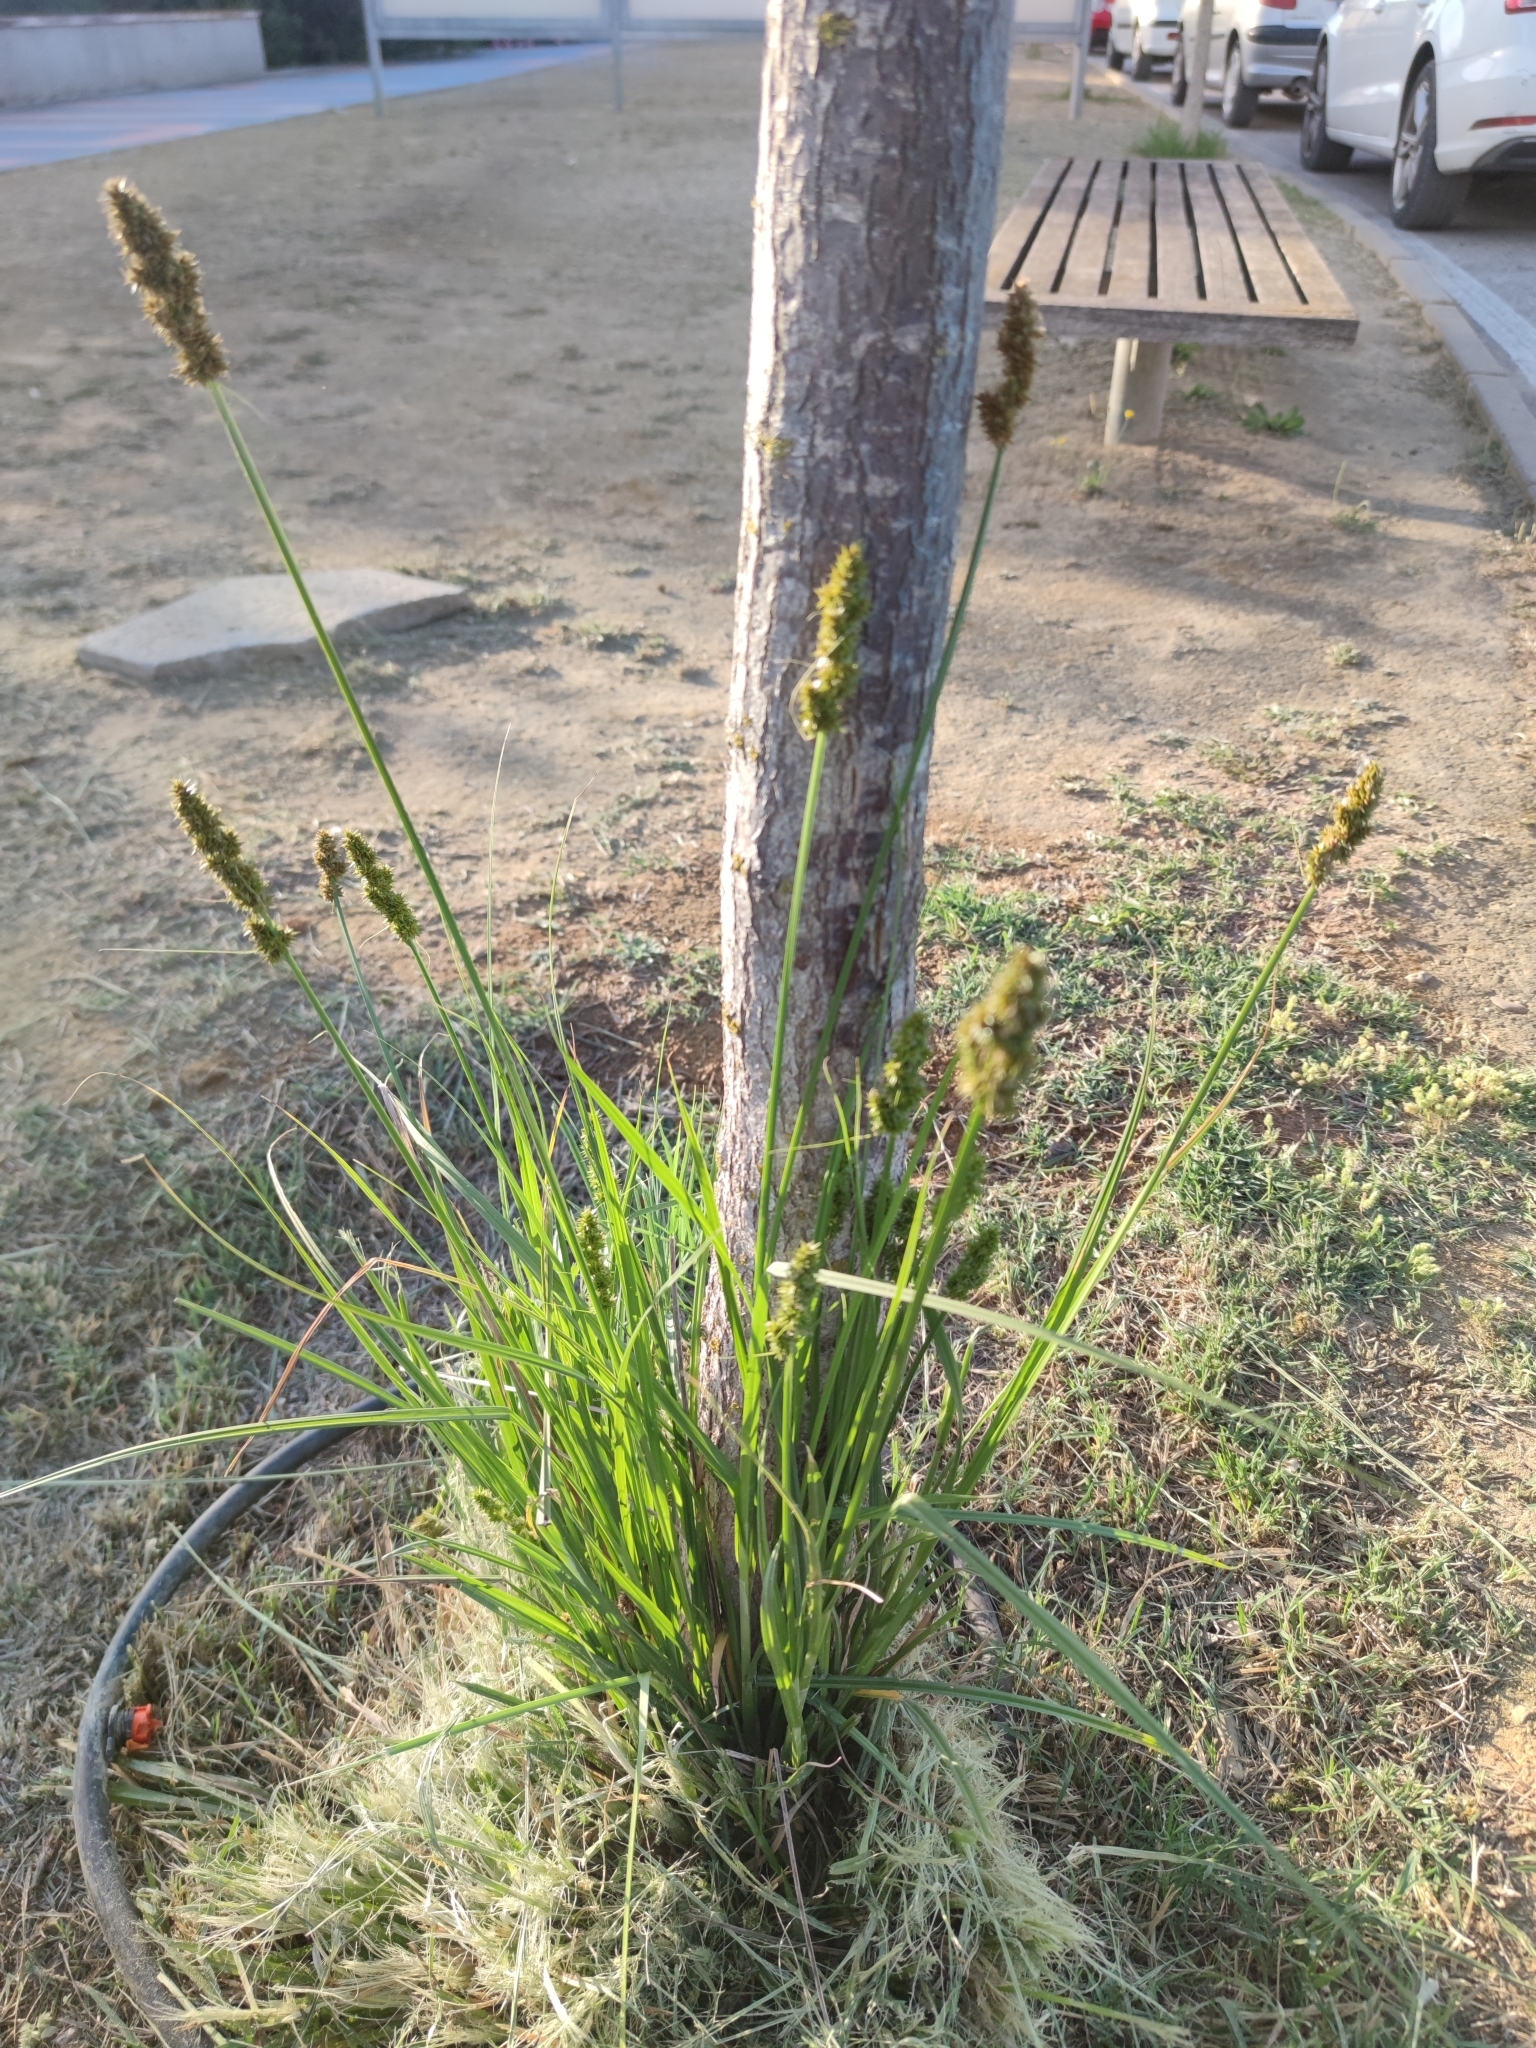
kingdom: Plantae
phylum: Tracheophyta
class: Liliopsida
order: Poales
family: Cyperaceae
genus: Carex
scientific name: Carex otrubae
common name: False fox-sedge
